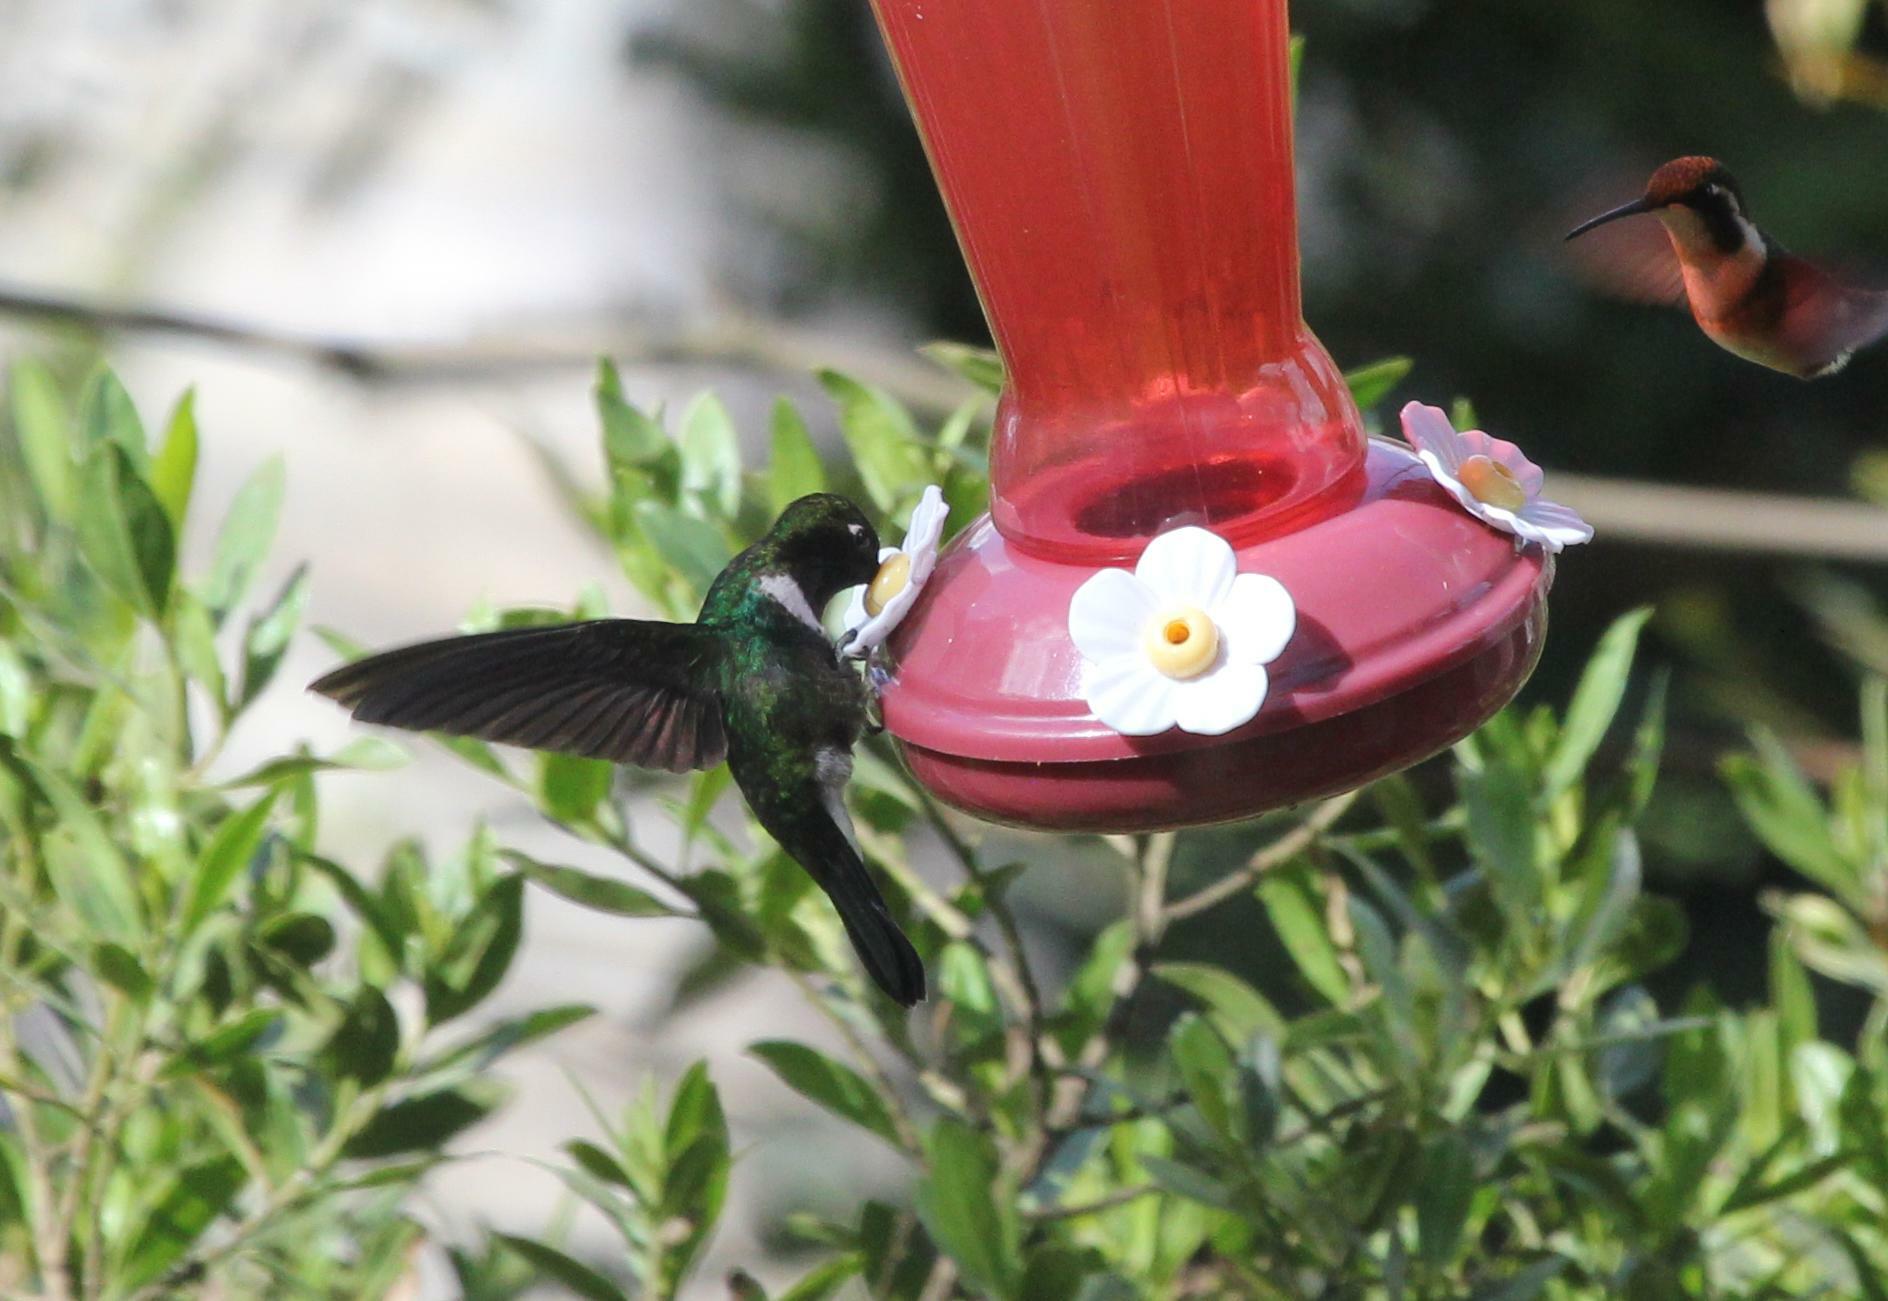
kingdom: Animalia
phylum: Chordata
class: Aves
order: Apodiformes
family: Trochilidae
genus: Heliangelus
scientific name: Heliangelus clarisse
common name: Longuemare's sunangel
